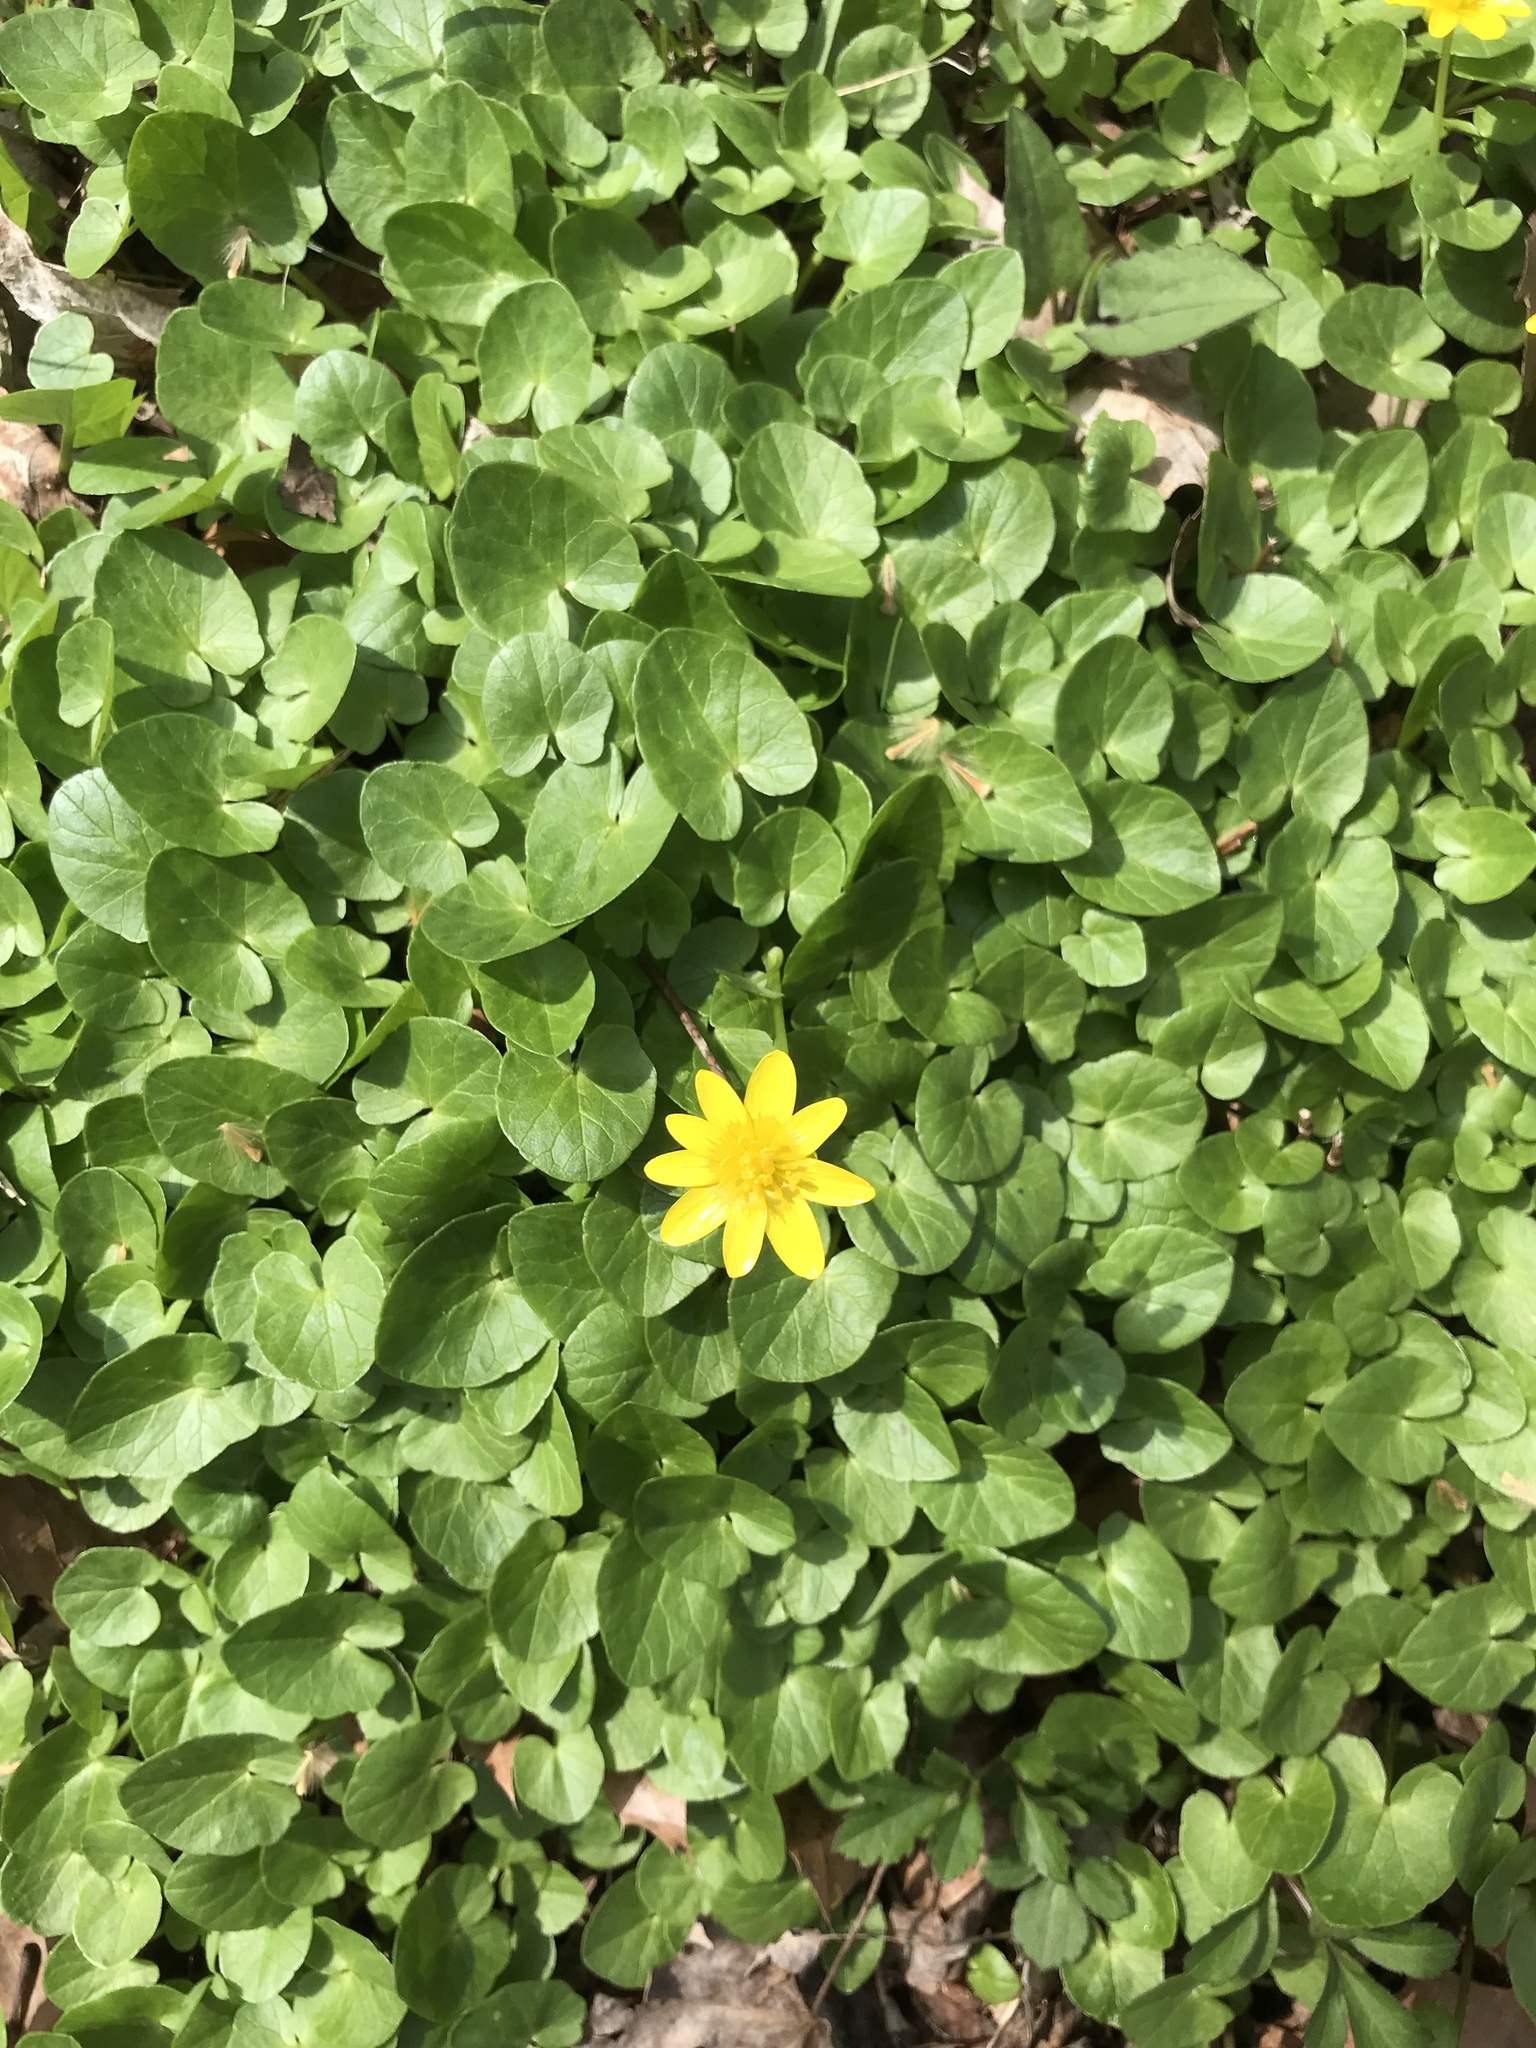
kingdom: Plantae
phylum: Tracheophyta
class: Magnoliopsida
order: Ranunculales
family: Ranunculaceae
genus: Ficaria
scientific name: Ficaria verna
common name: Lesser celandine
